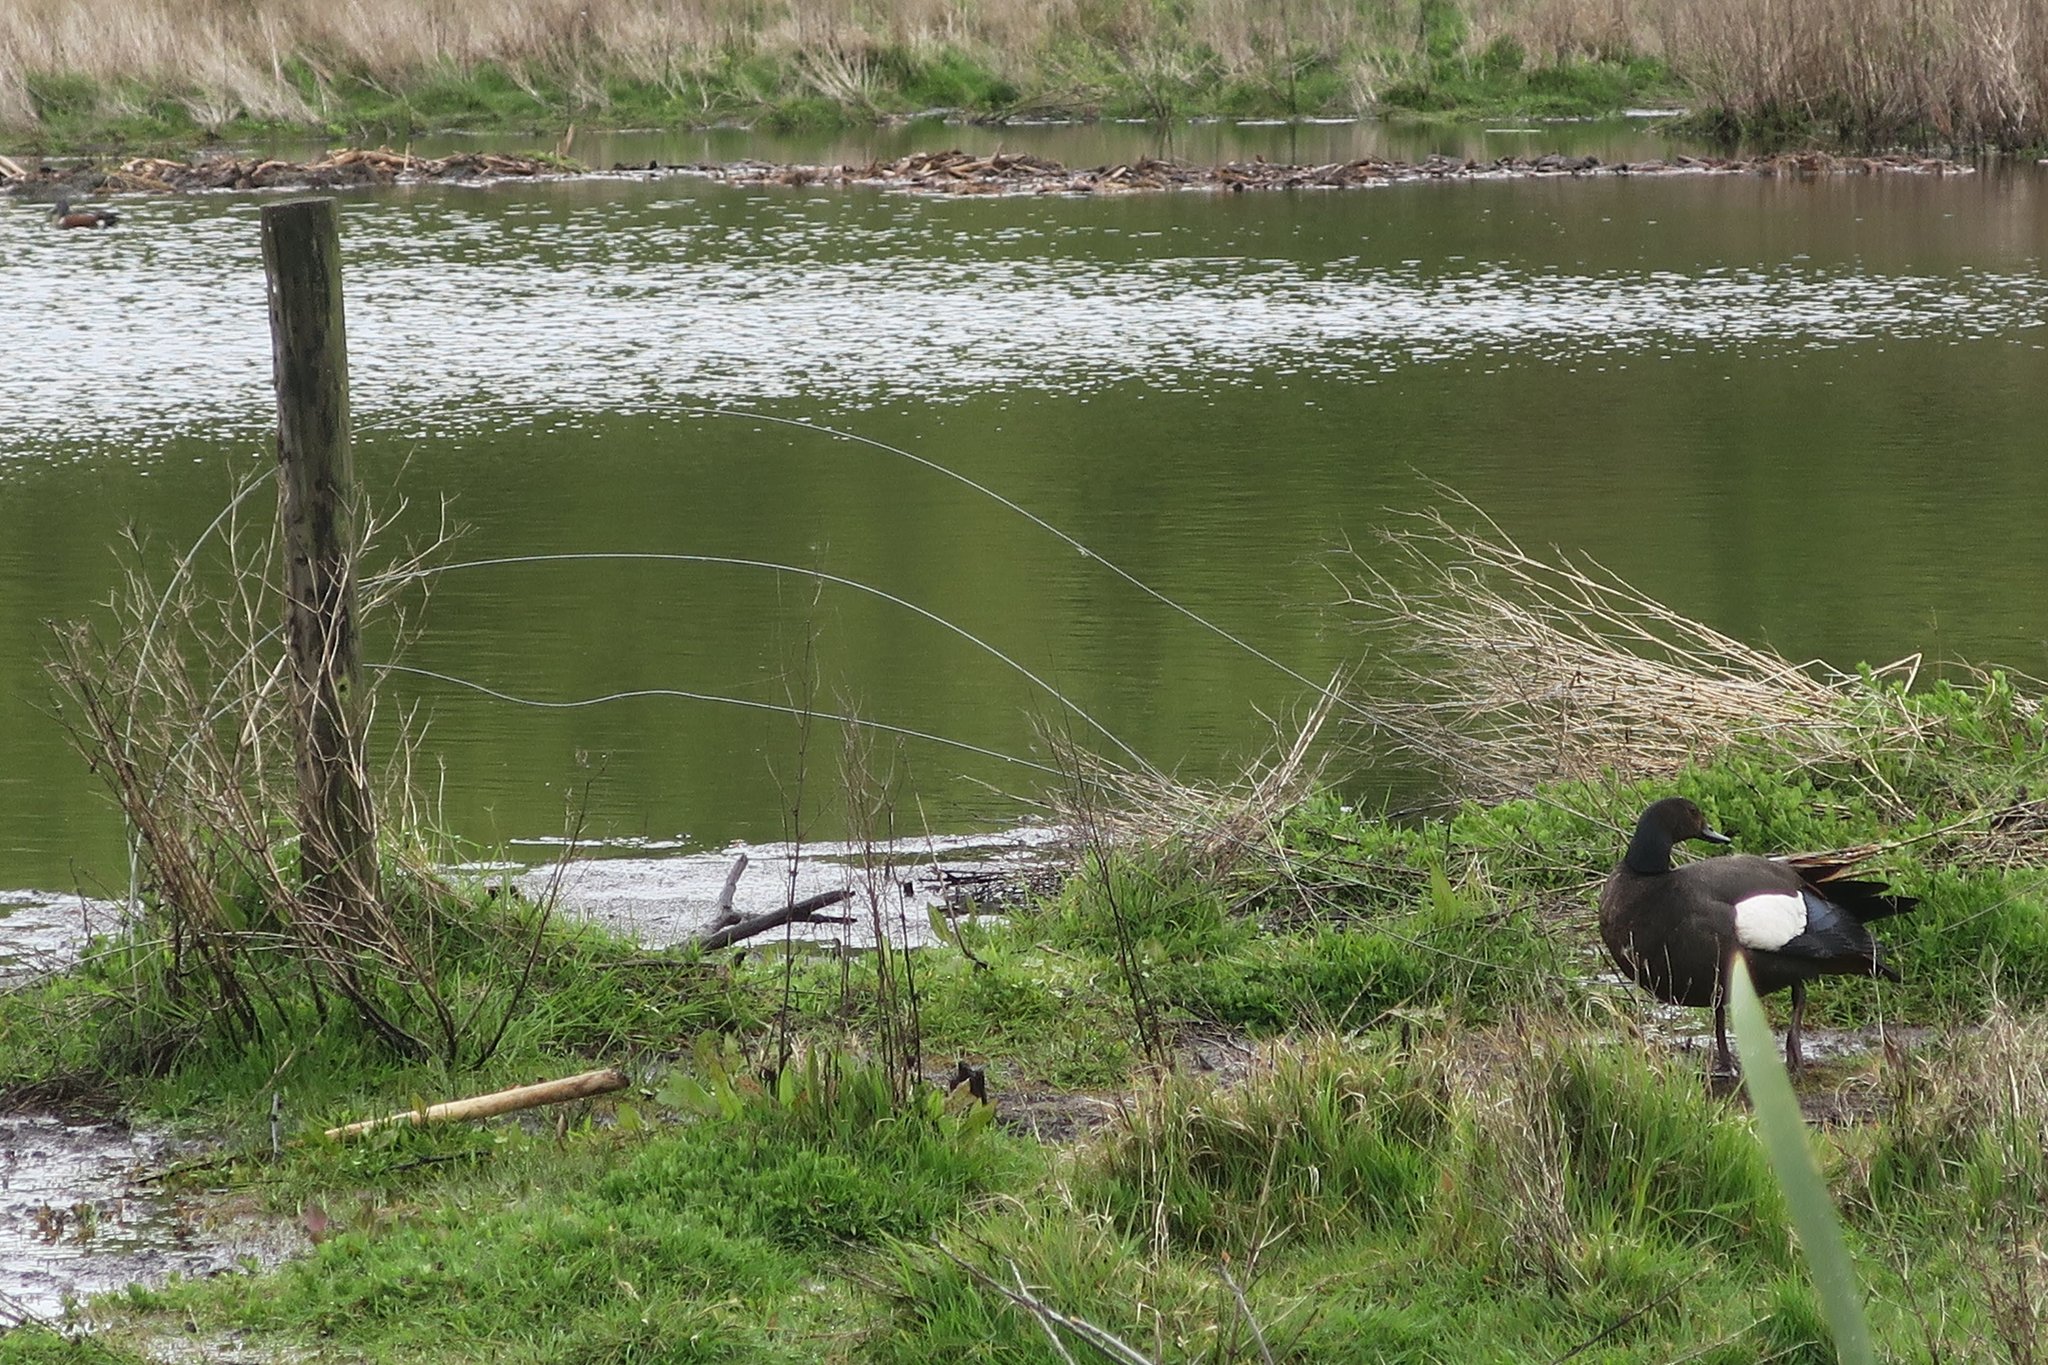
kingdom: Animalia
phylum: Chordata
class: Aves
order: Anseriformes
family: Anatidae
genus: Tadorna
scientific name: Tadorna variegata
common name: Paradise shelduck
